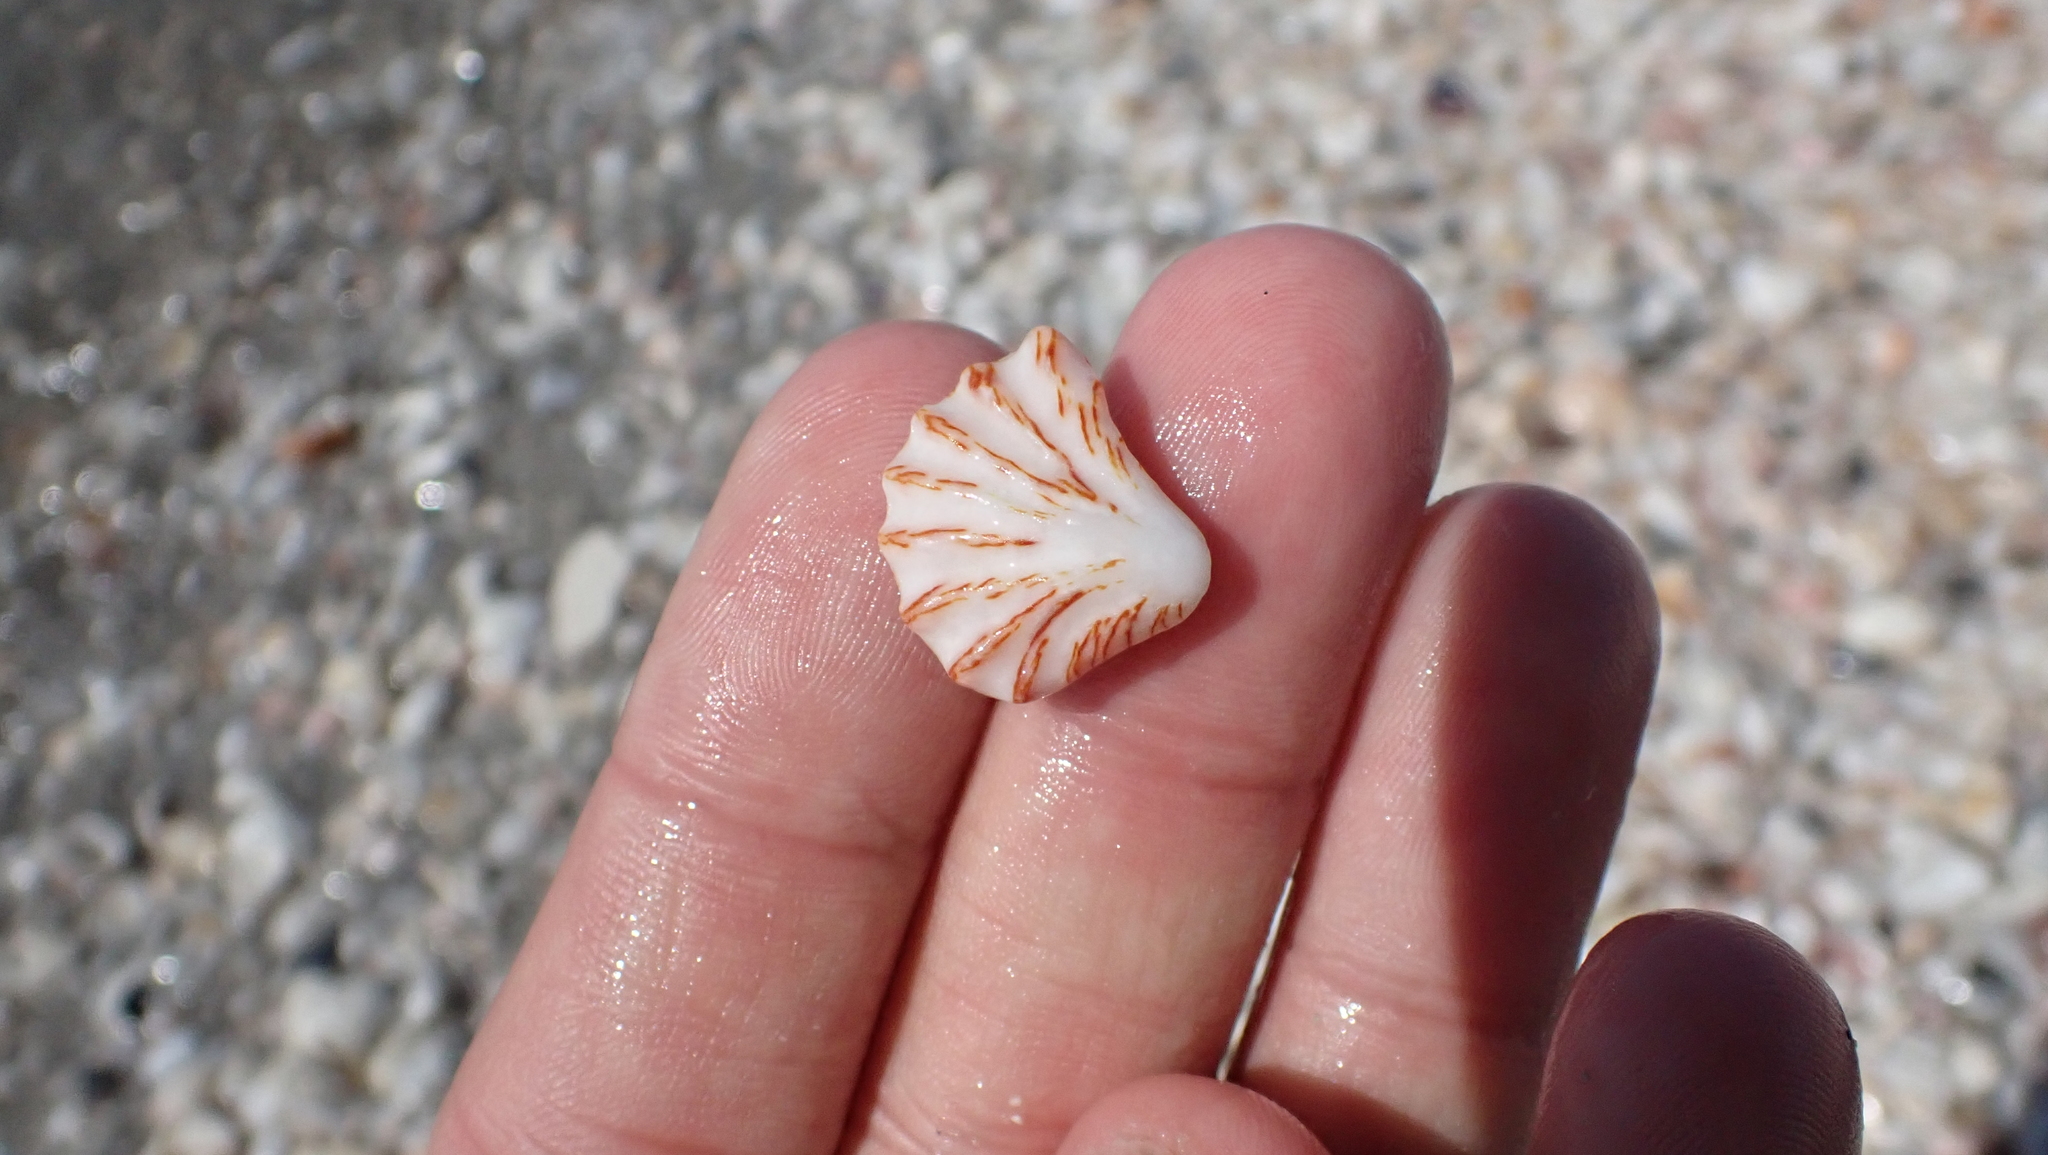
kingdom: Animalia
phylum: Mollusca
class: Bivalvia
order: Pectinida
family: Plicatulidae
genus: Plicatula
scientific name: Plicatula gibbosa
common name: Atlantic kitten's paw
